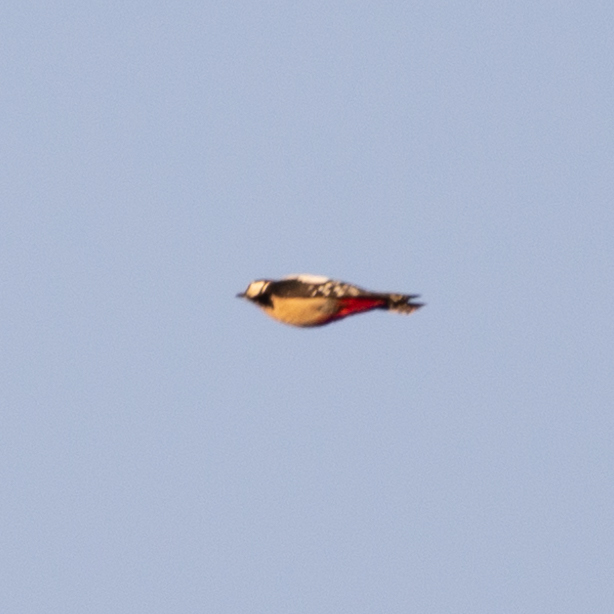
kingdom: Animalia
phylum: Chordata
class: Aves
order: Piciformes
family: Picidae
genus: Dendrocopos
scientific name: Dendrocopos major
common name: Great spotted woodpecker
